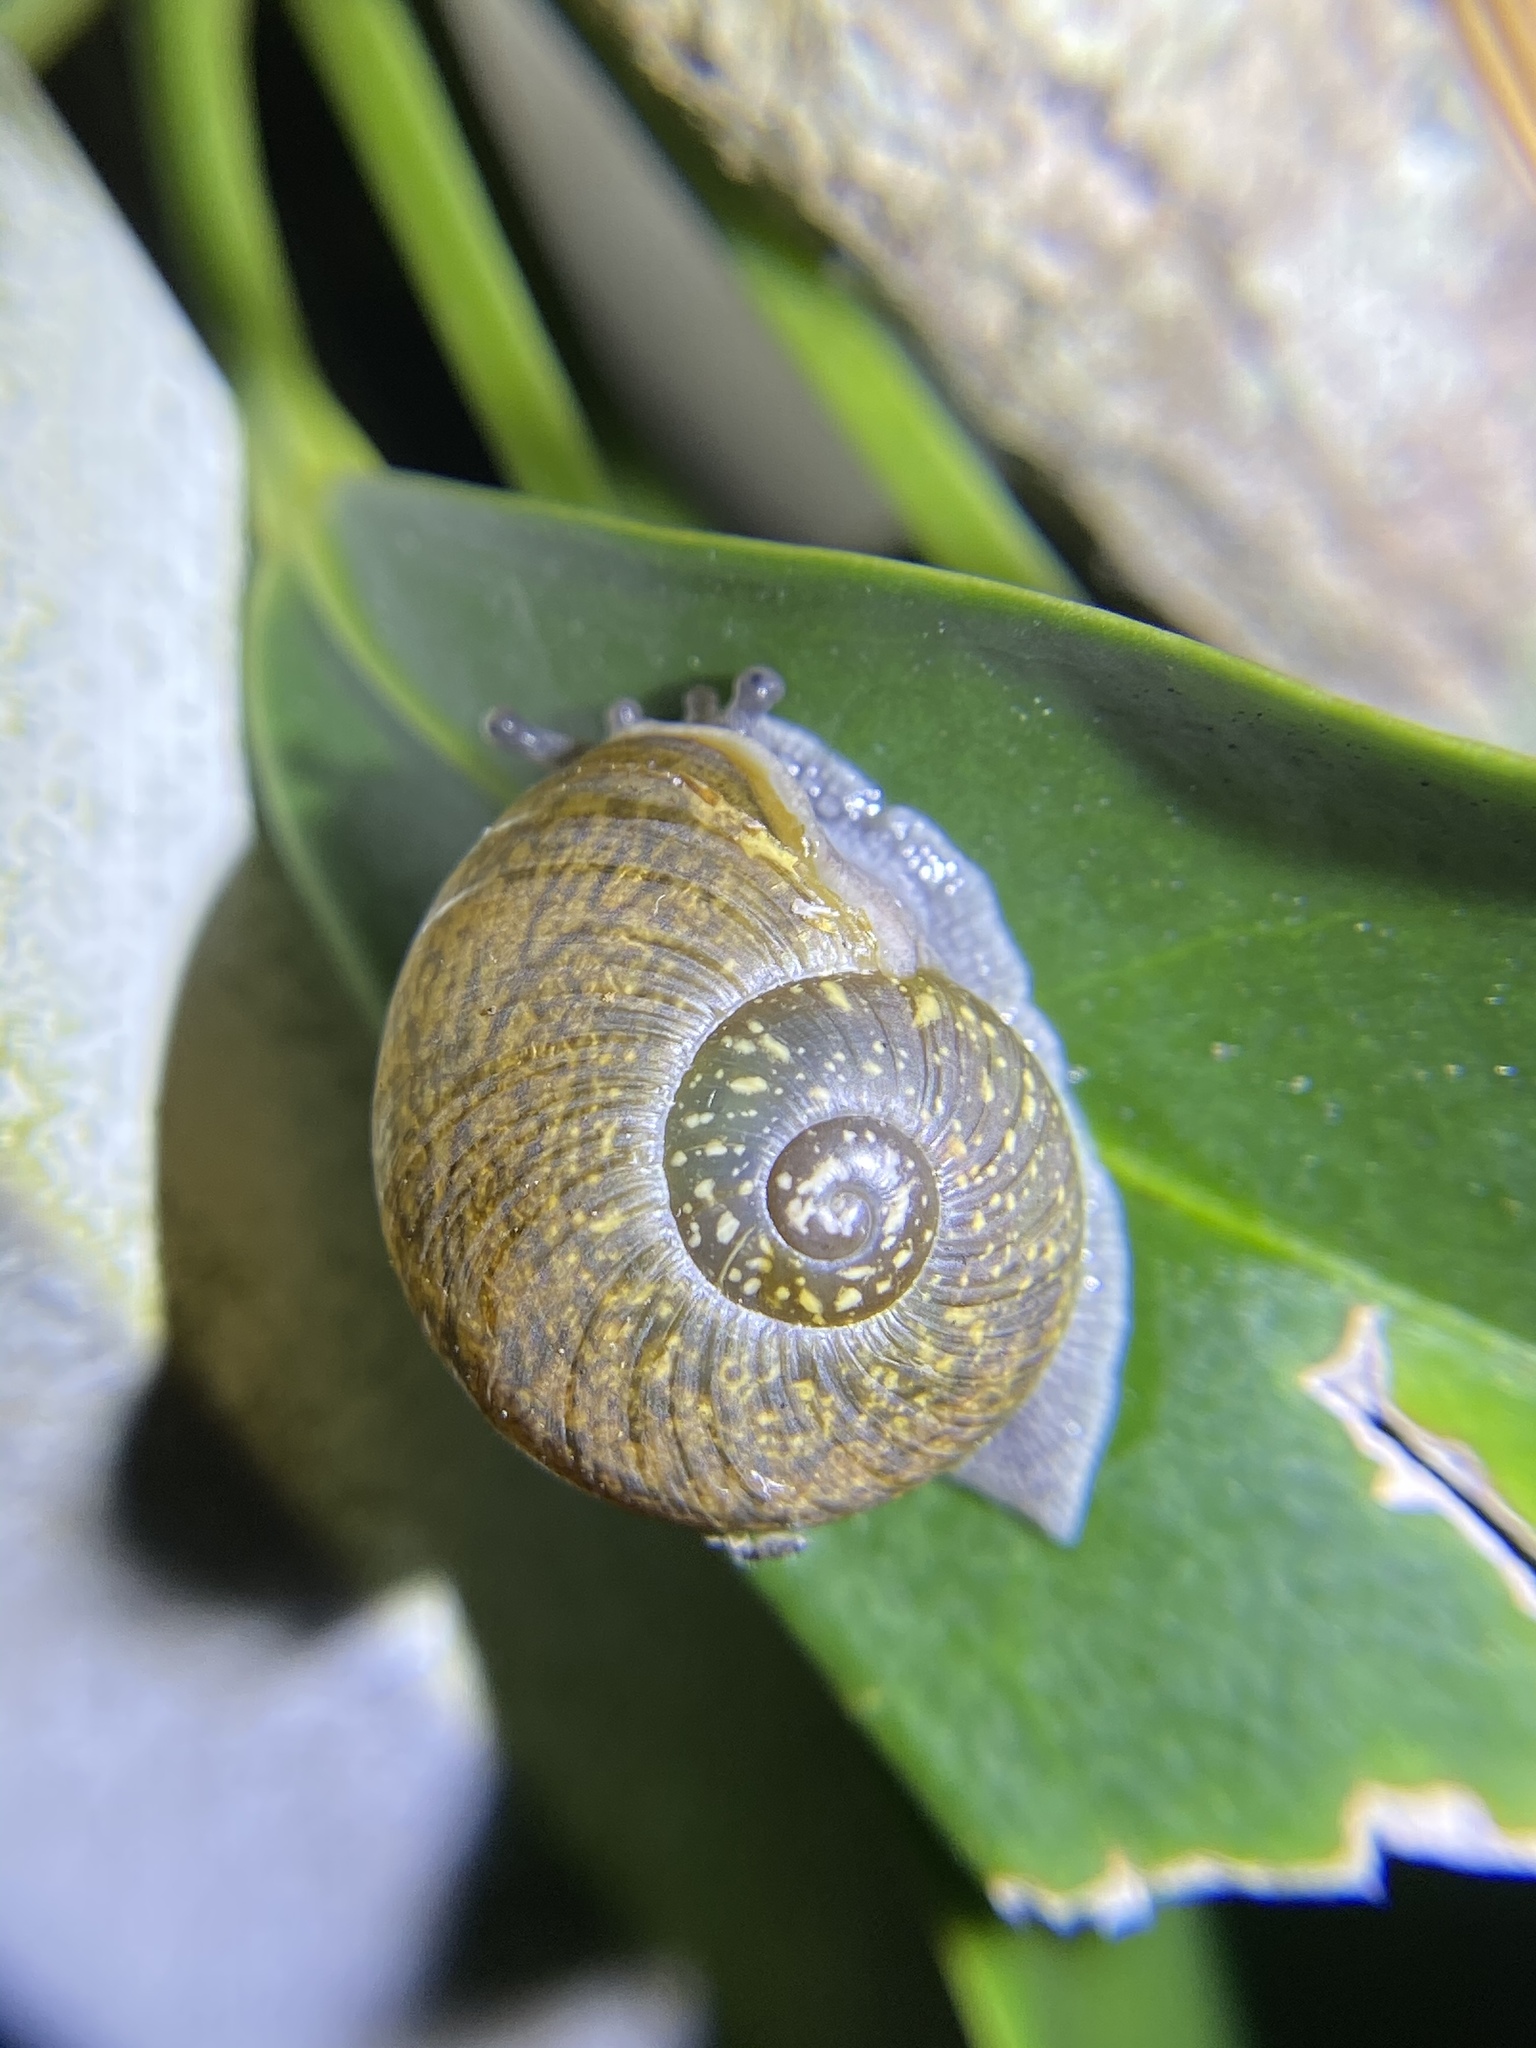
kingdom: Animalia
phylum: Mollusca
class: Gastropoda
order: Stylommatophora
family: Zachrysiidae
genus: Zachrysia
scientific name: Zachrysia provisoria
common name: Garden zachrysia
